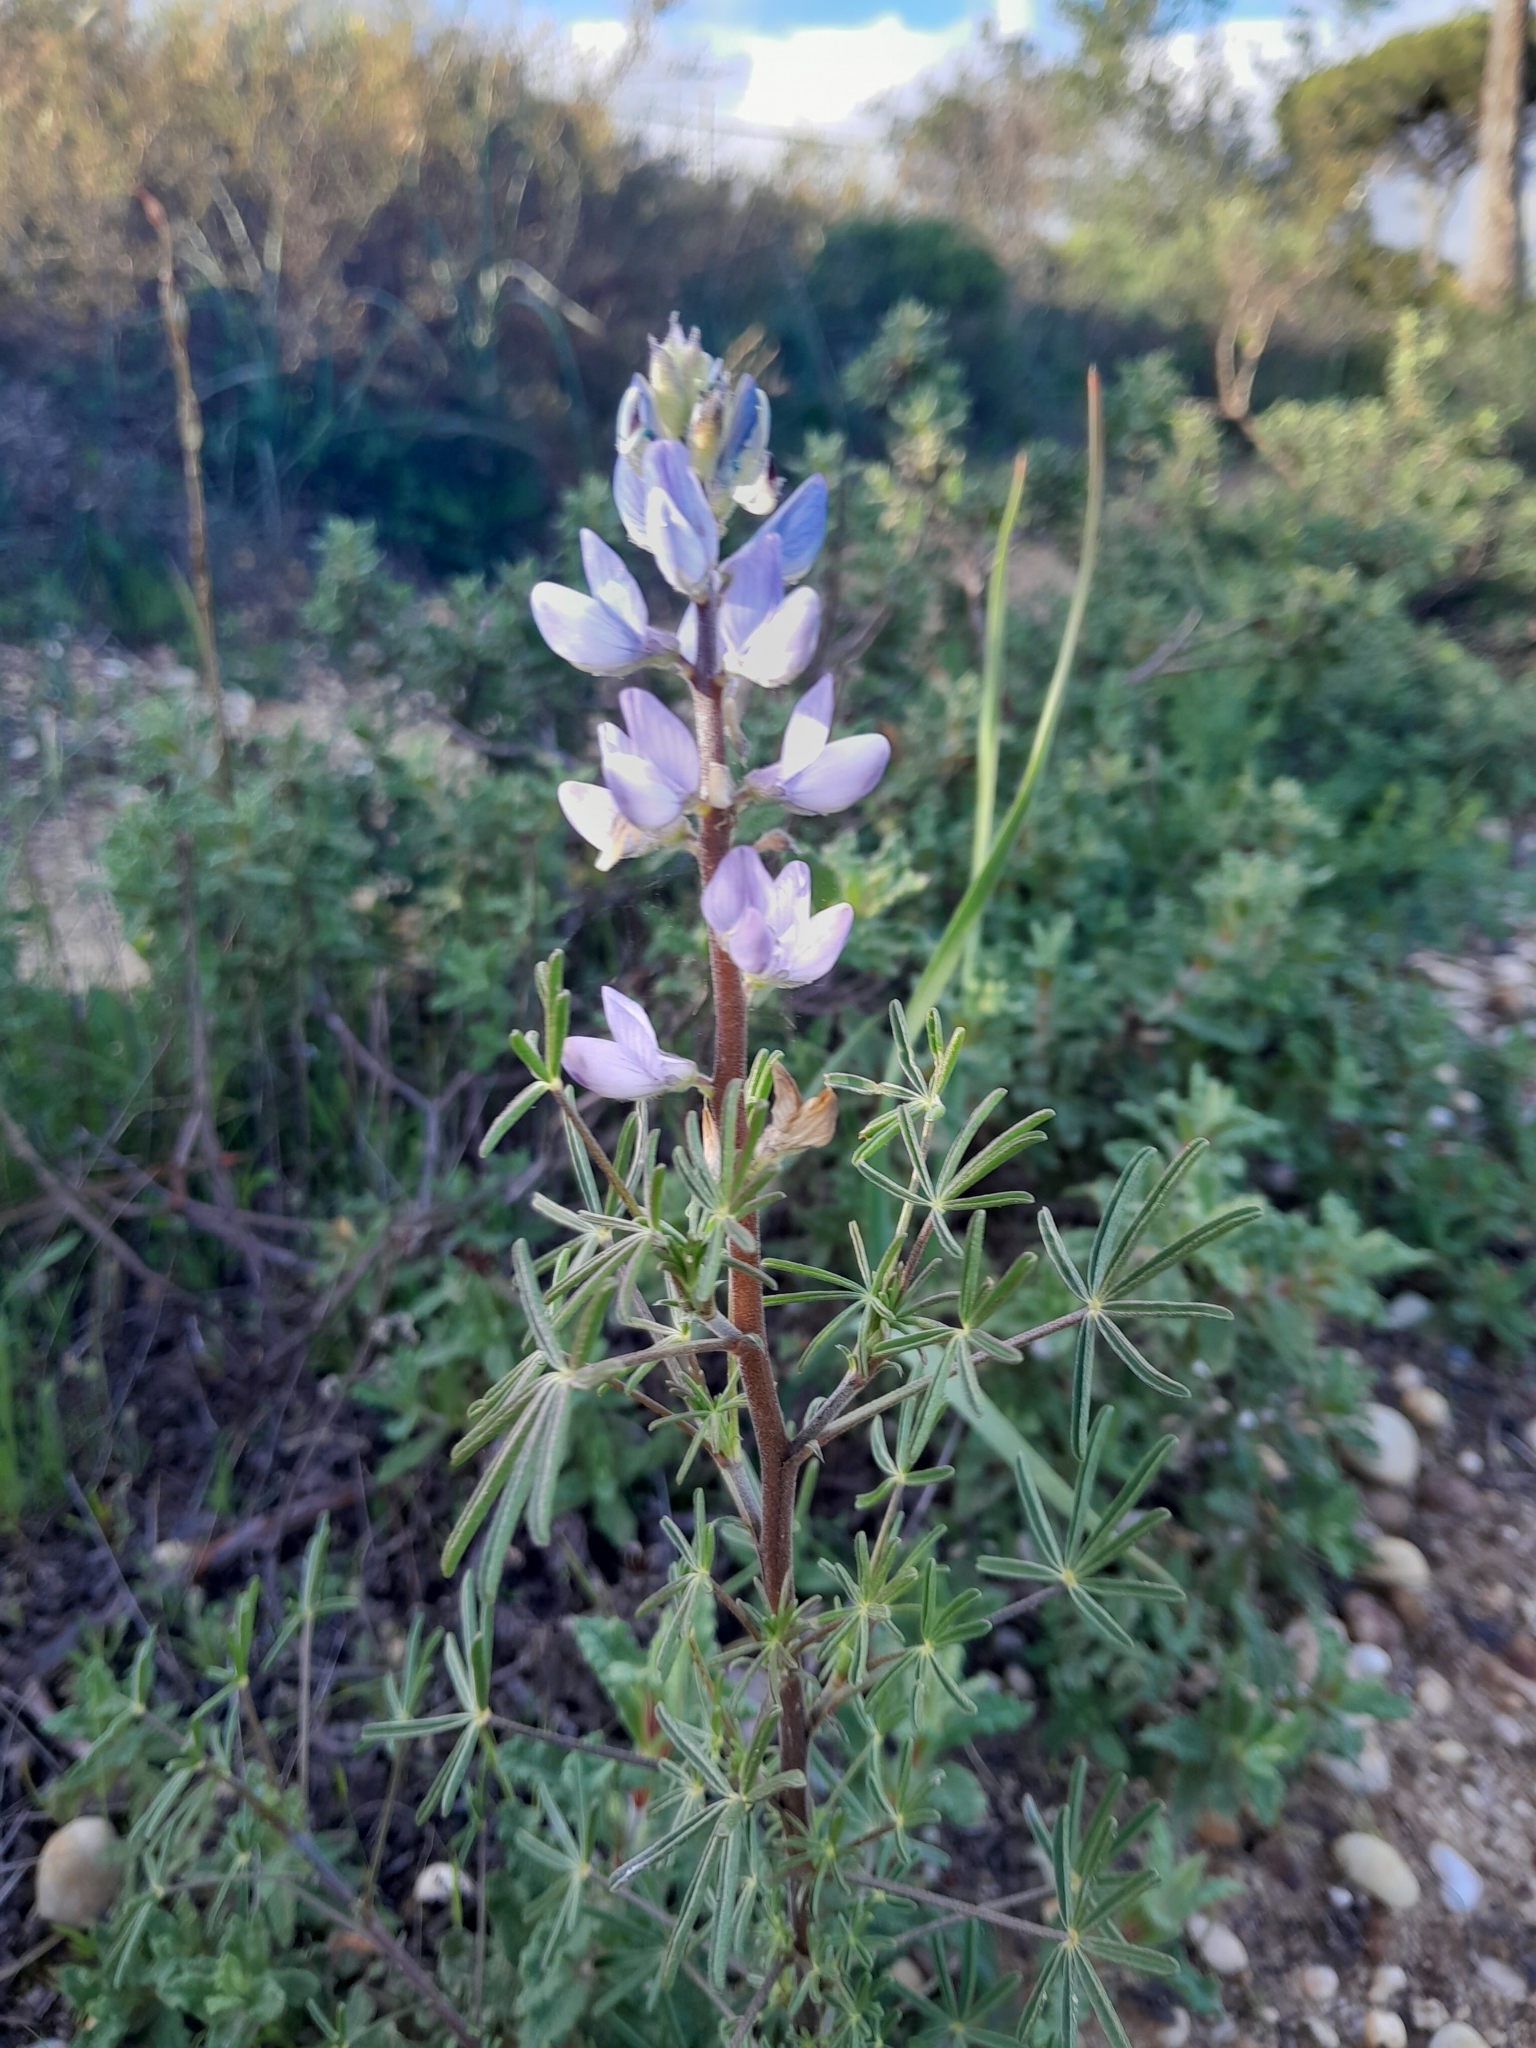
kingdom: Plantae
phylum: Tracheophyta
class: Magnoliopsida
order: Fabales
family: Fabaceae
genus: Lupinus
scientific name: Lupinus angustifolius
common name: Narrow-leaved lupin
